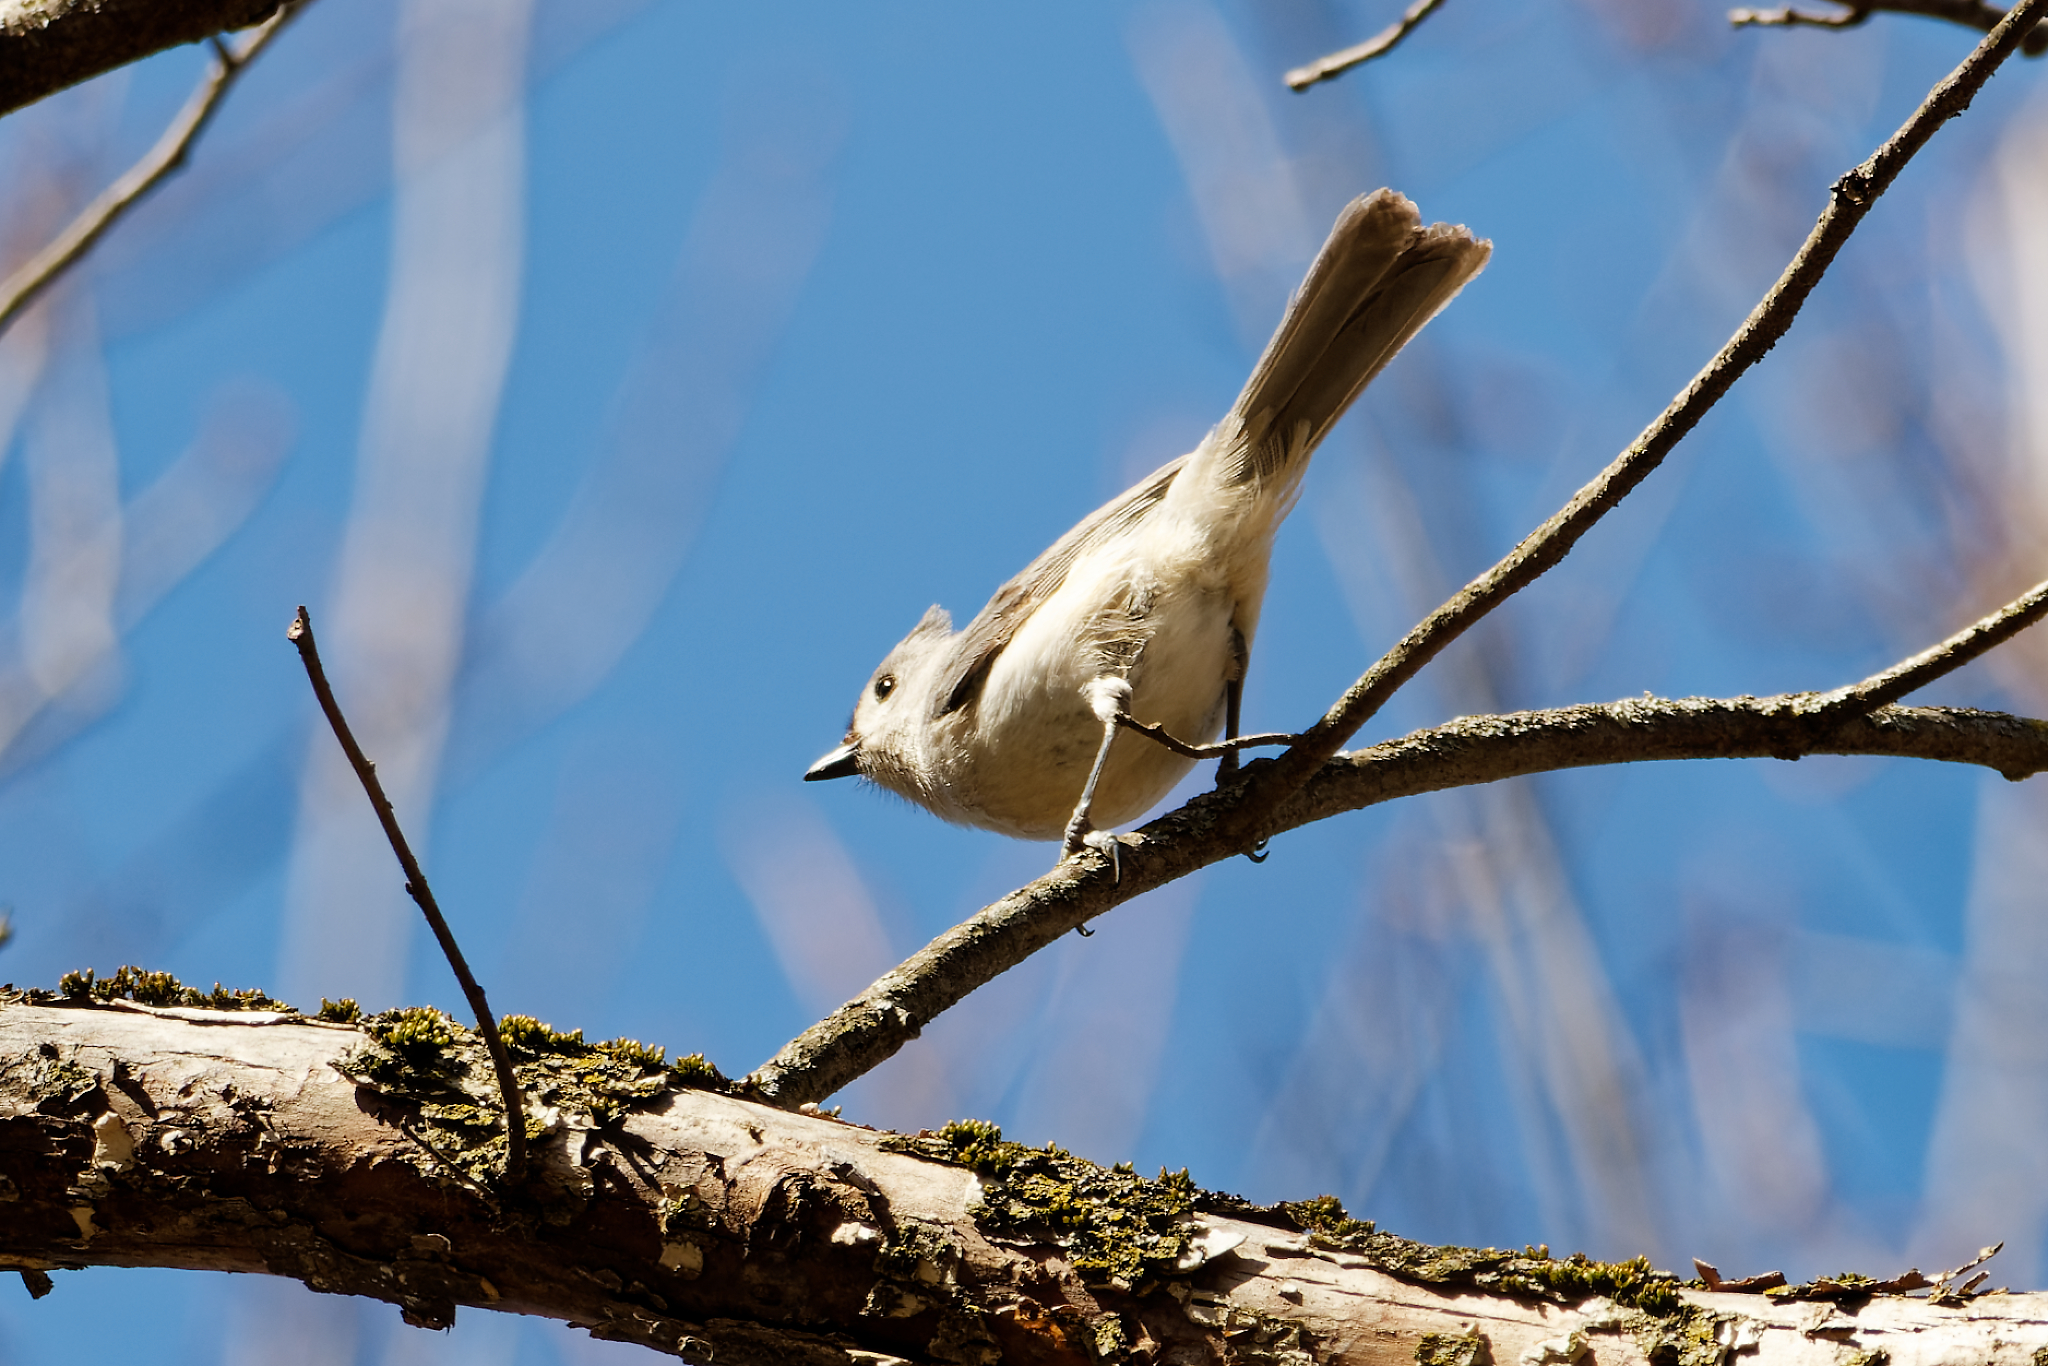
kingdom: Animalia
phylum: Chordata
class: Aves
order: Passeriformes
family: Paridae
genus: Baeolophus
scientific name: Baeolophus bicolor
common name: Tufted titmouse
